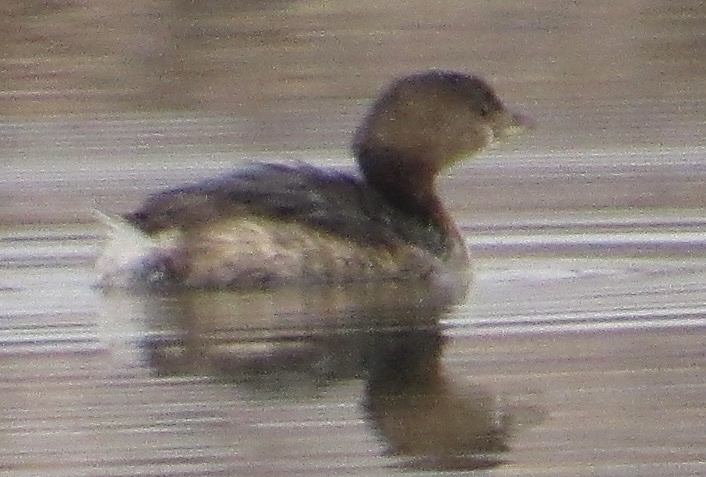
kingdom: Animalia
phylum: Chordata
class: Aves
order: Podicipediformes
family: Podicipedidae
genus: Podilymbus
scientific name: Podilymbus podiceps
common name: Pied-billed grebe
